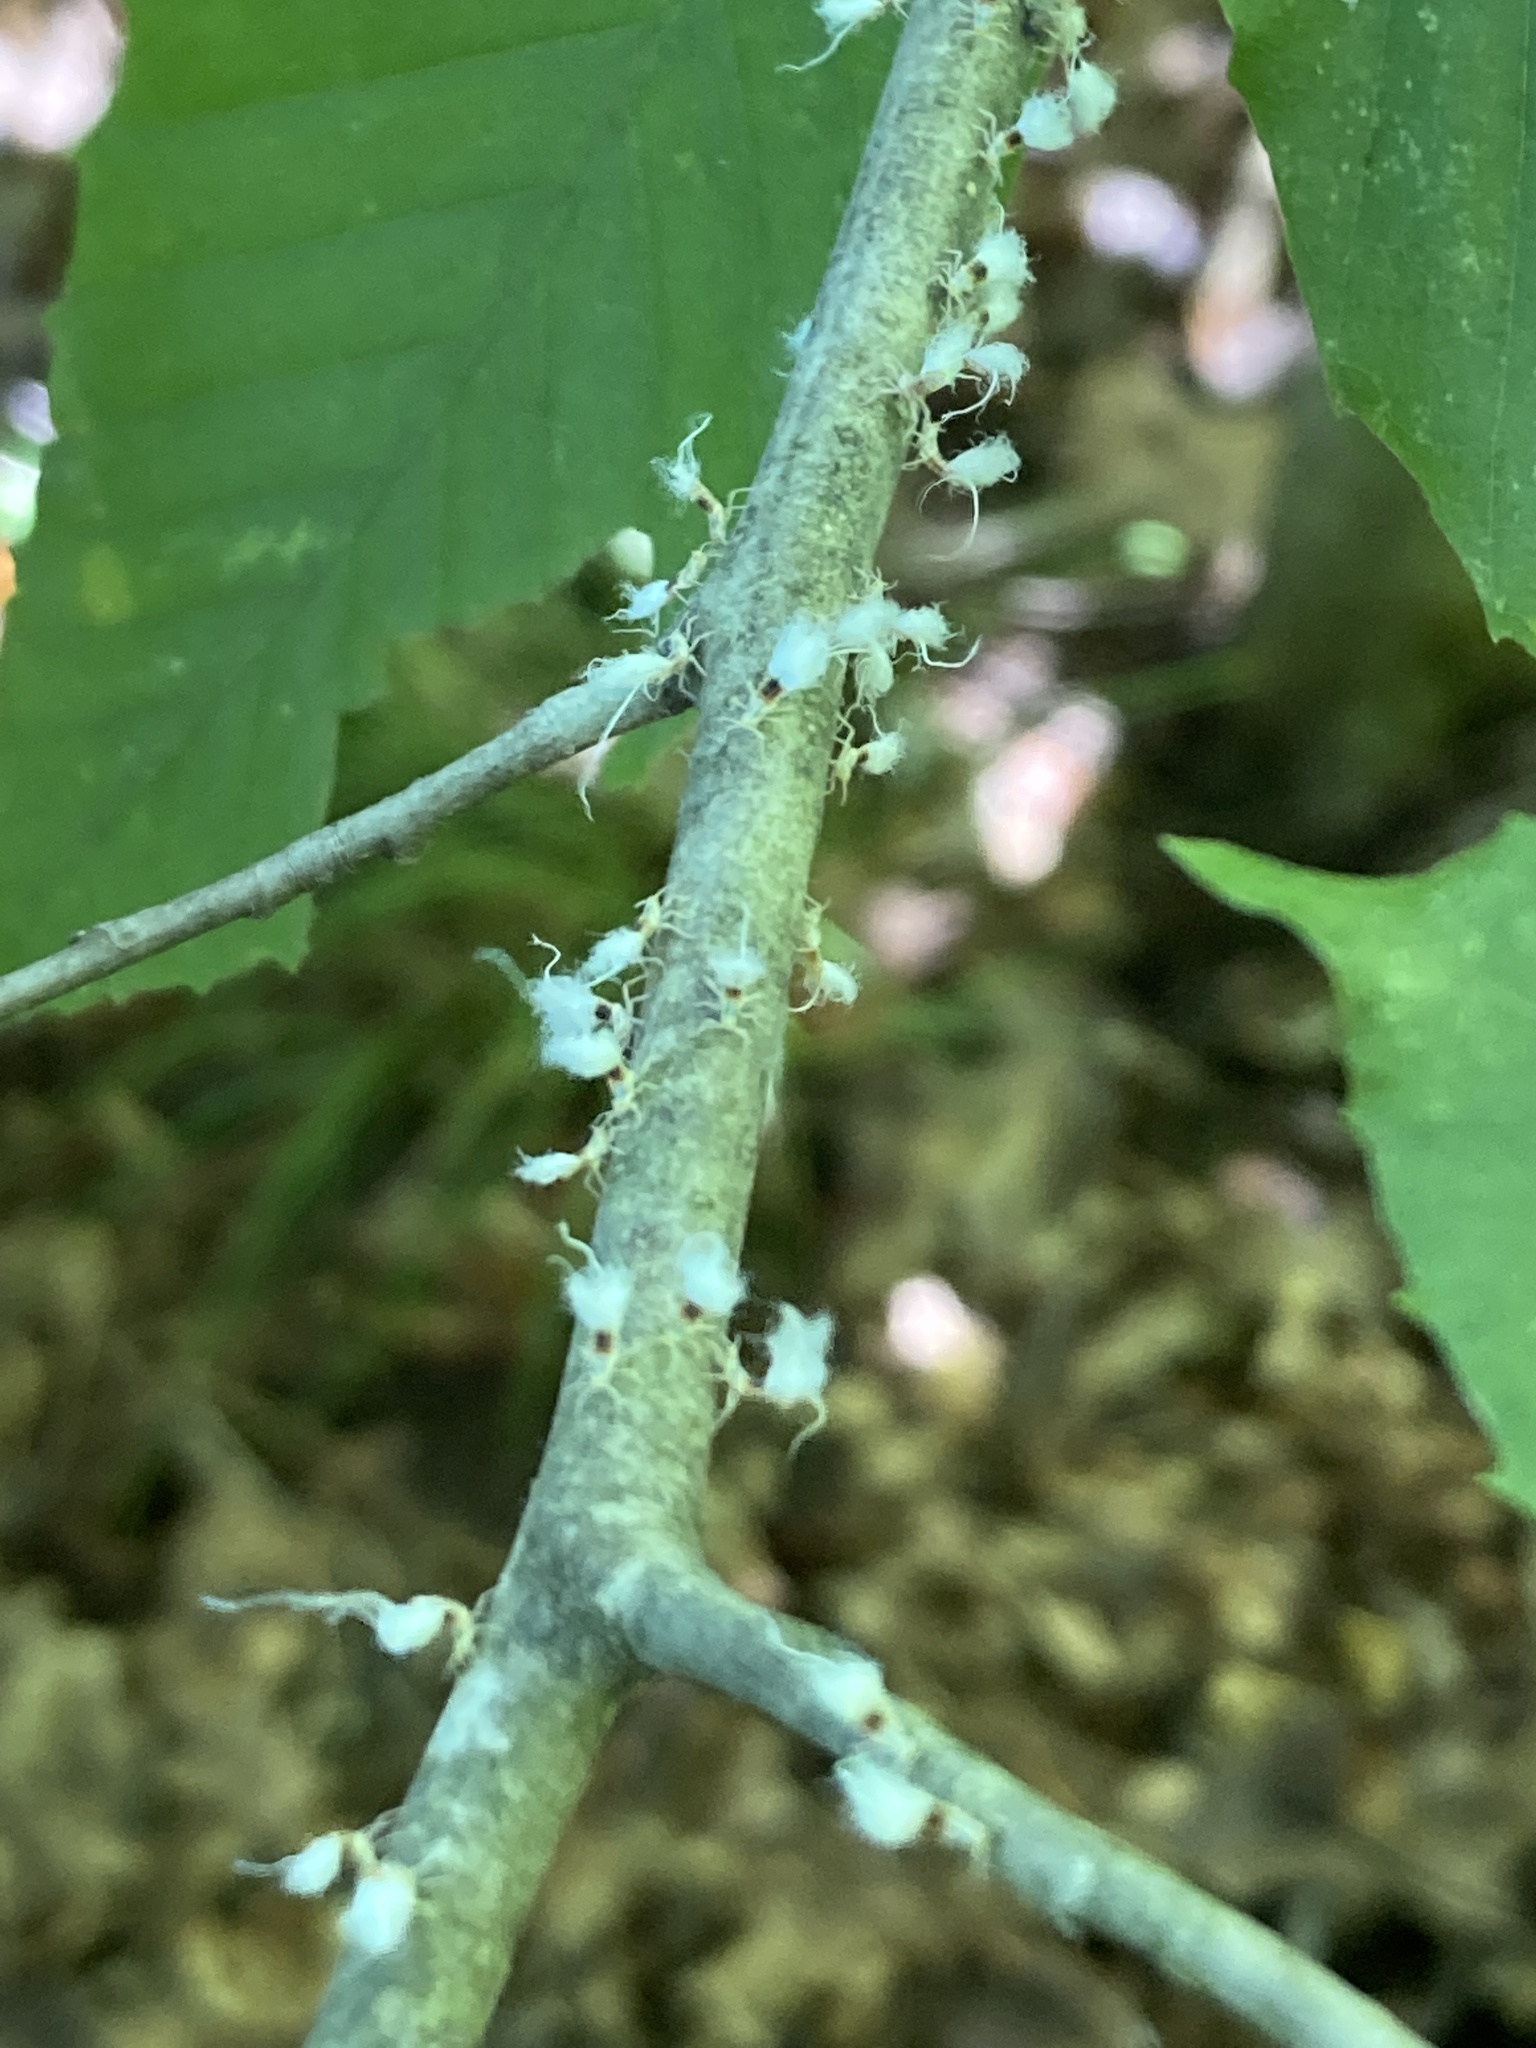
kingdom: Animalia
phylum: Arthropoda
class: Insecta
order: Hemiptera
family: Aphididae
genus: Grylloprociphilus
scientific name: Grylloprociphilus imbricator
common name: Beech blight aphid
